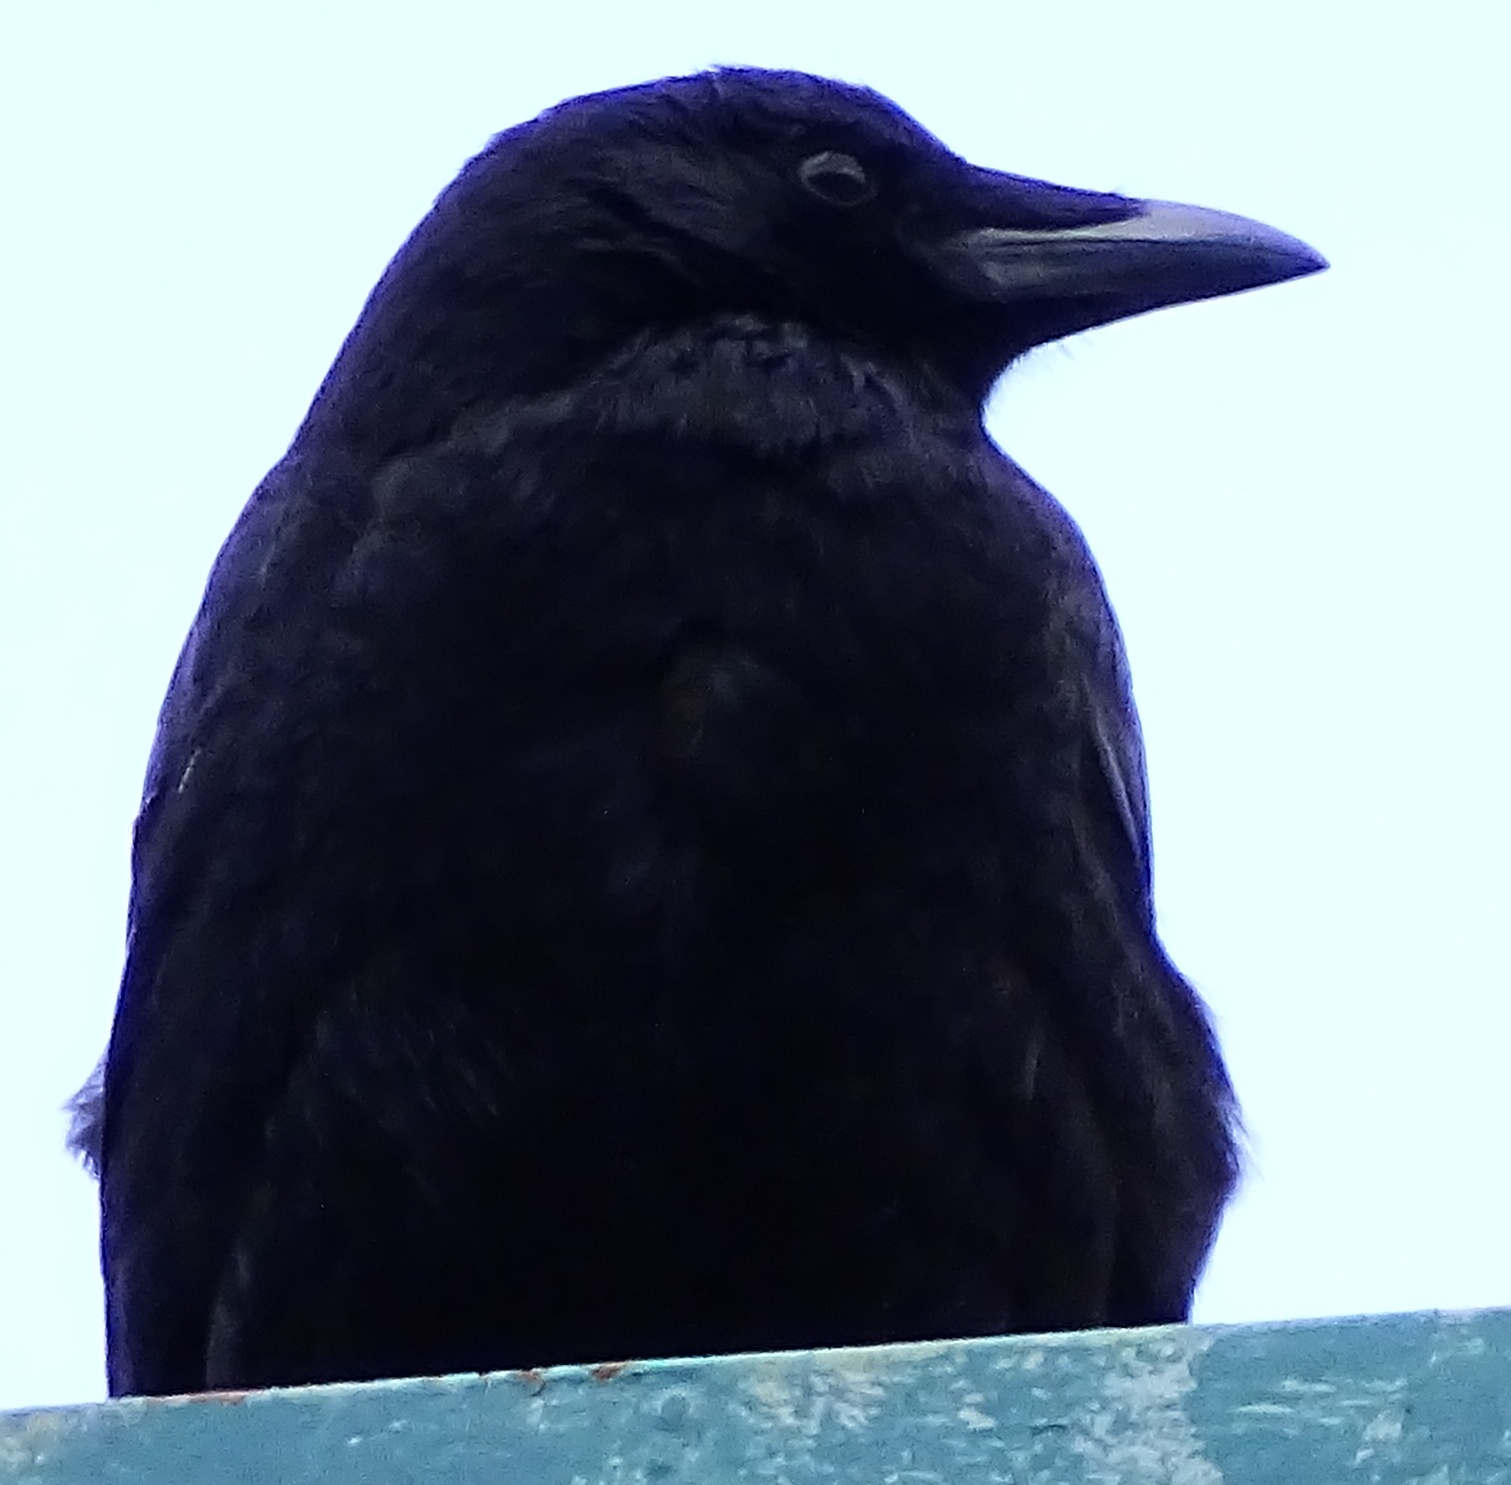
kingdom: Animalia
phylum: Chordata
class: Aves
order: Passeriformes
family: Corvidae
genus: Corvus
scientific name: Corvus brachyrhynchos
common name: American crow
